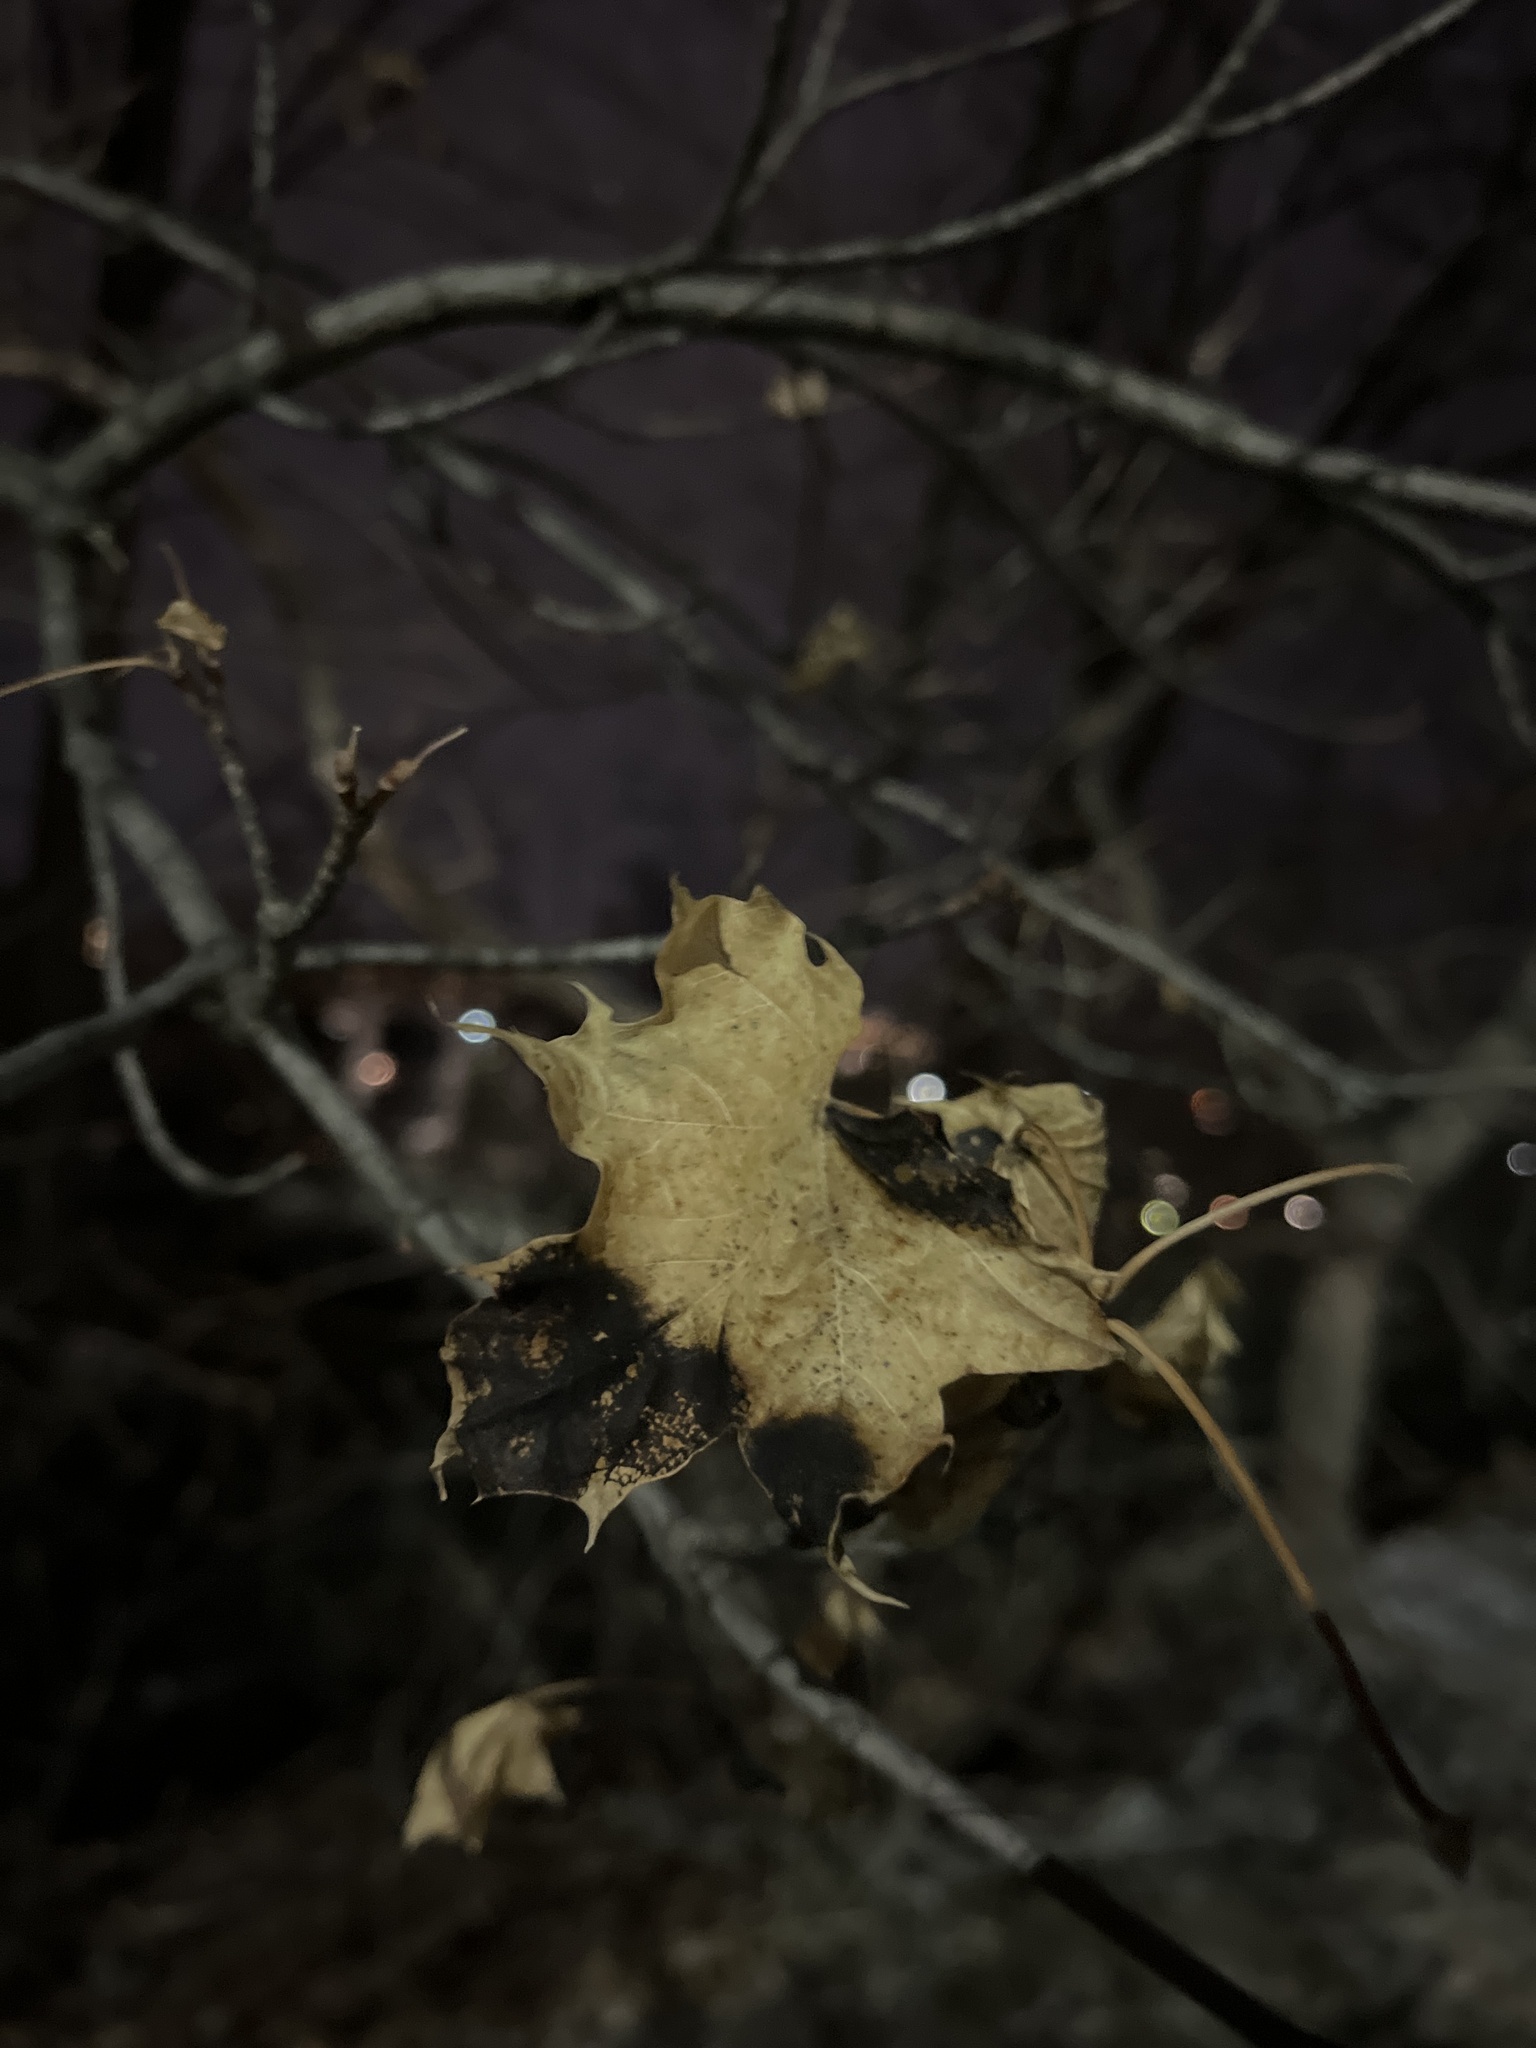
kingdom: Fungi
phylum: Ascomycota
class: Leotiomycetes
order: Rhytismatales
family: Rhytismataceae
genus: Rhytisma
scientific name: Rhytisma acerinum
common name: European tar spot
